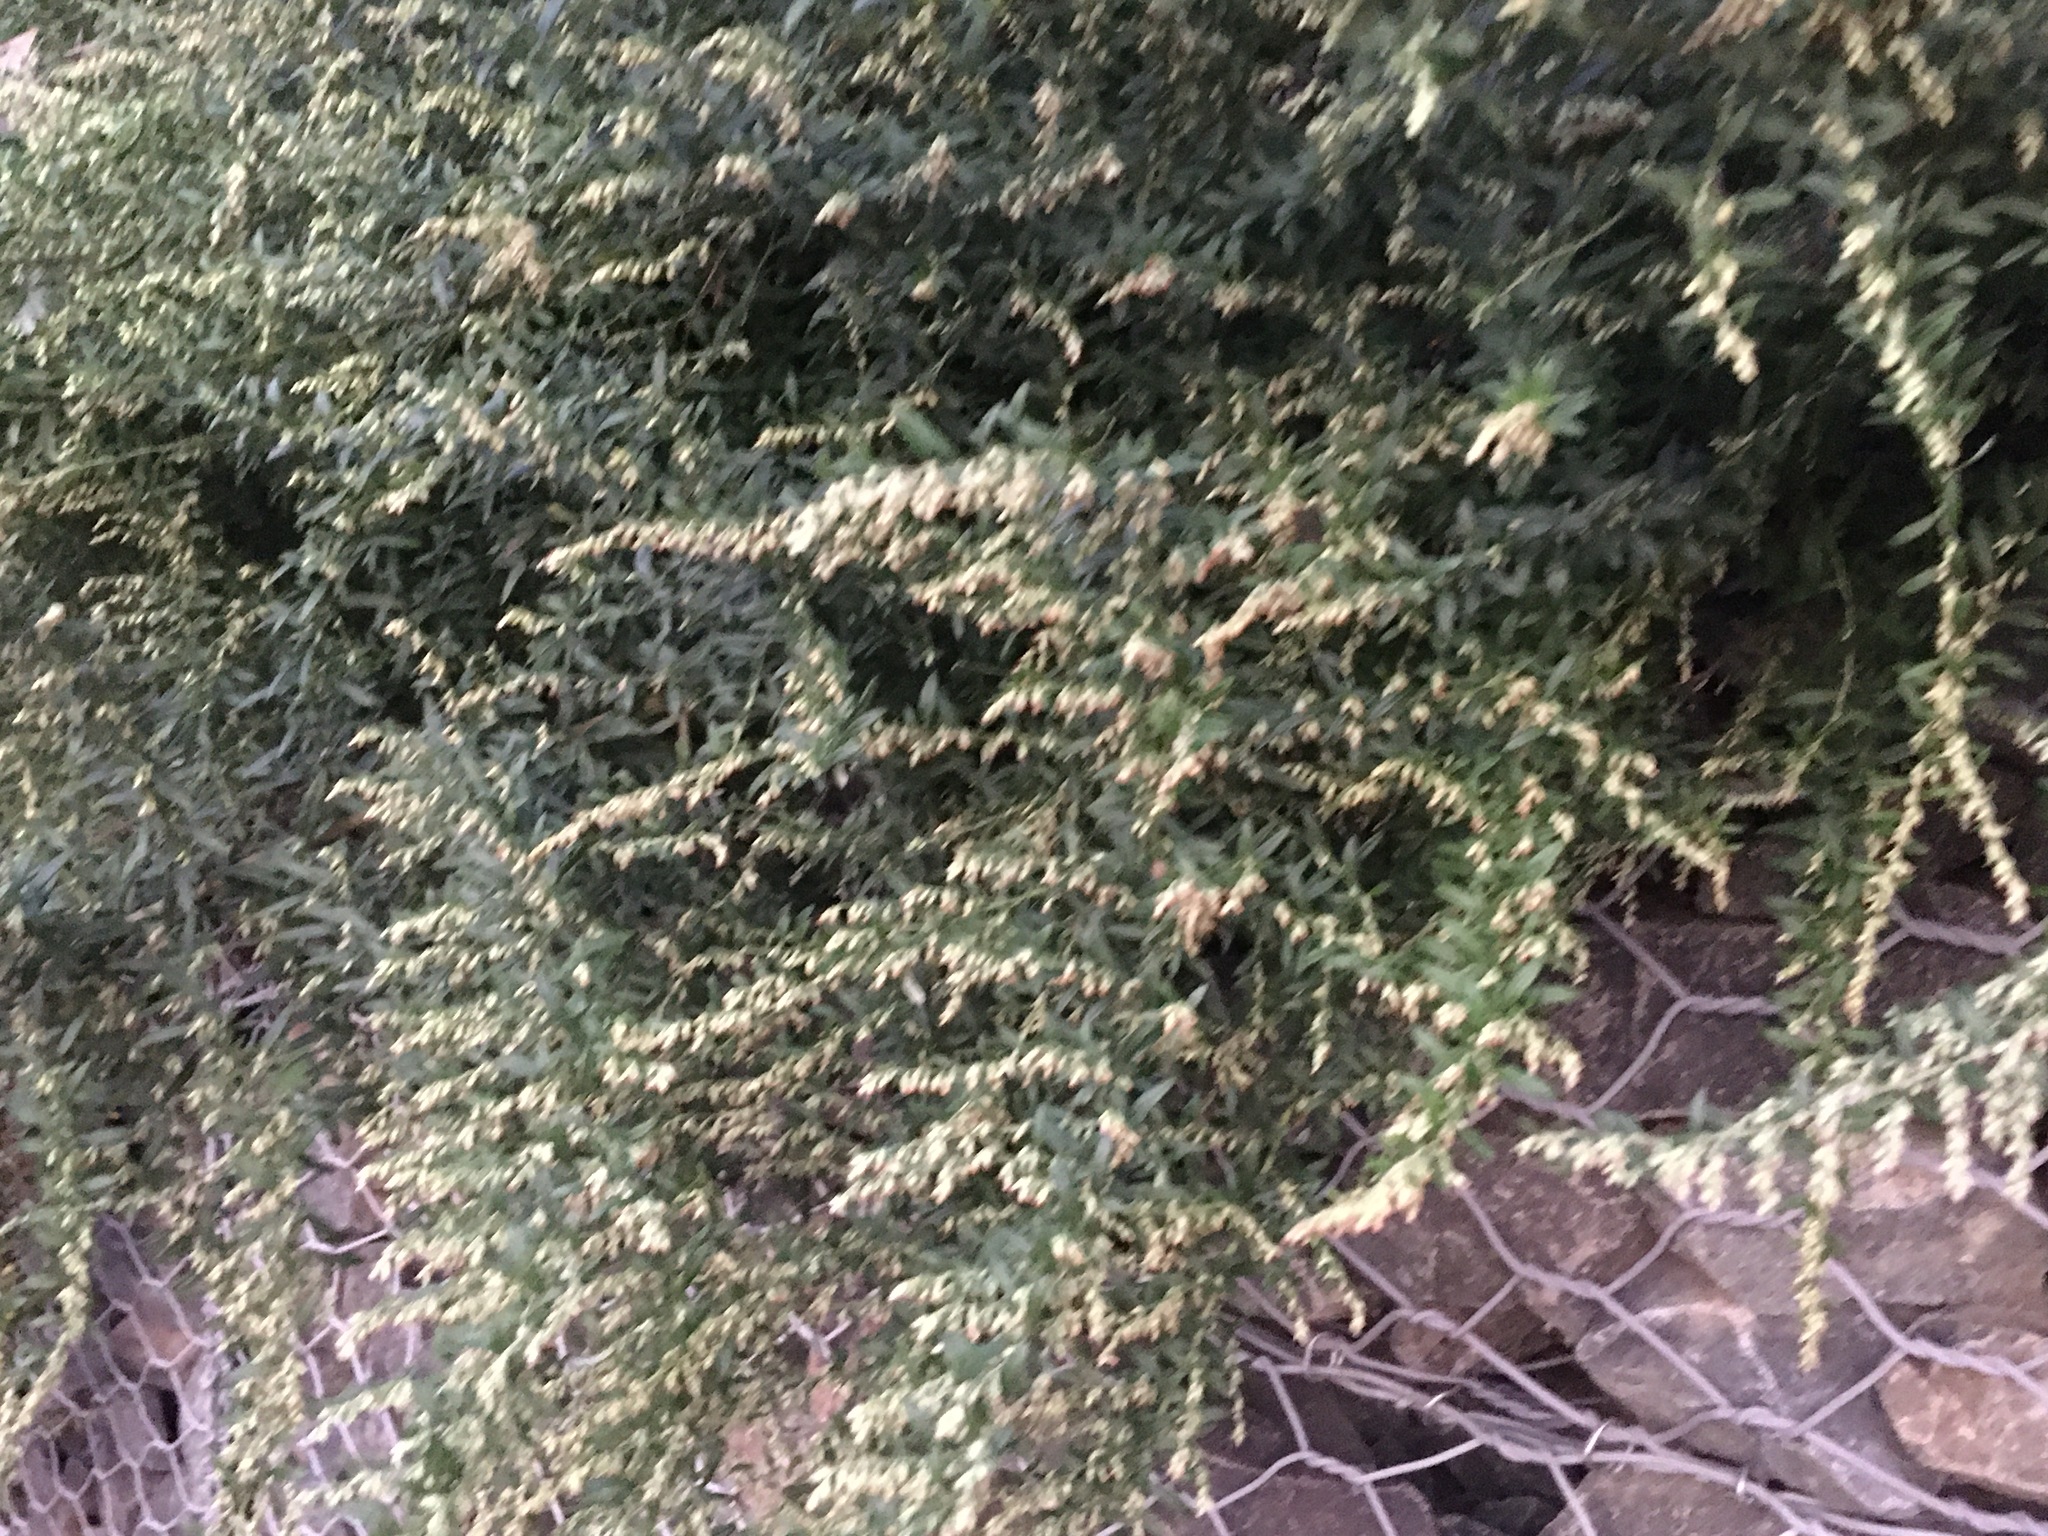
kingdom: Plantae
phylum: Tracheophyta
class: Magnoliopsida
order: Asterales
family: Asteraceae
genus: Artemisia
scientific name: Artemisia vulgaris
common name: Mugwort
